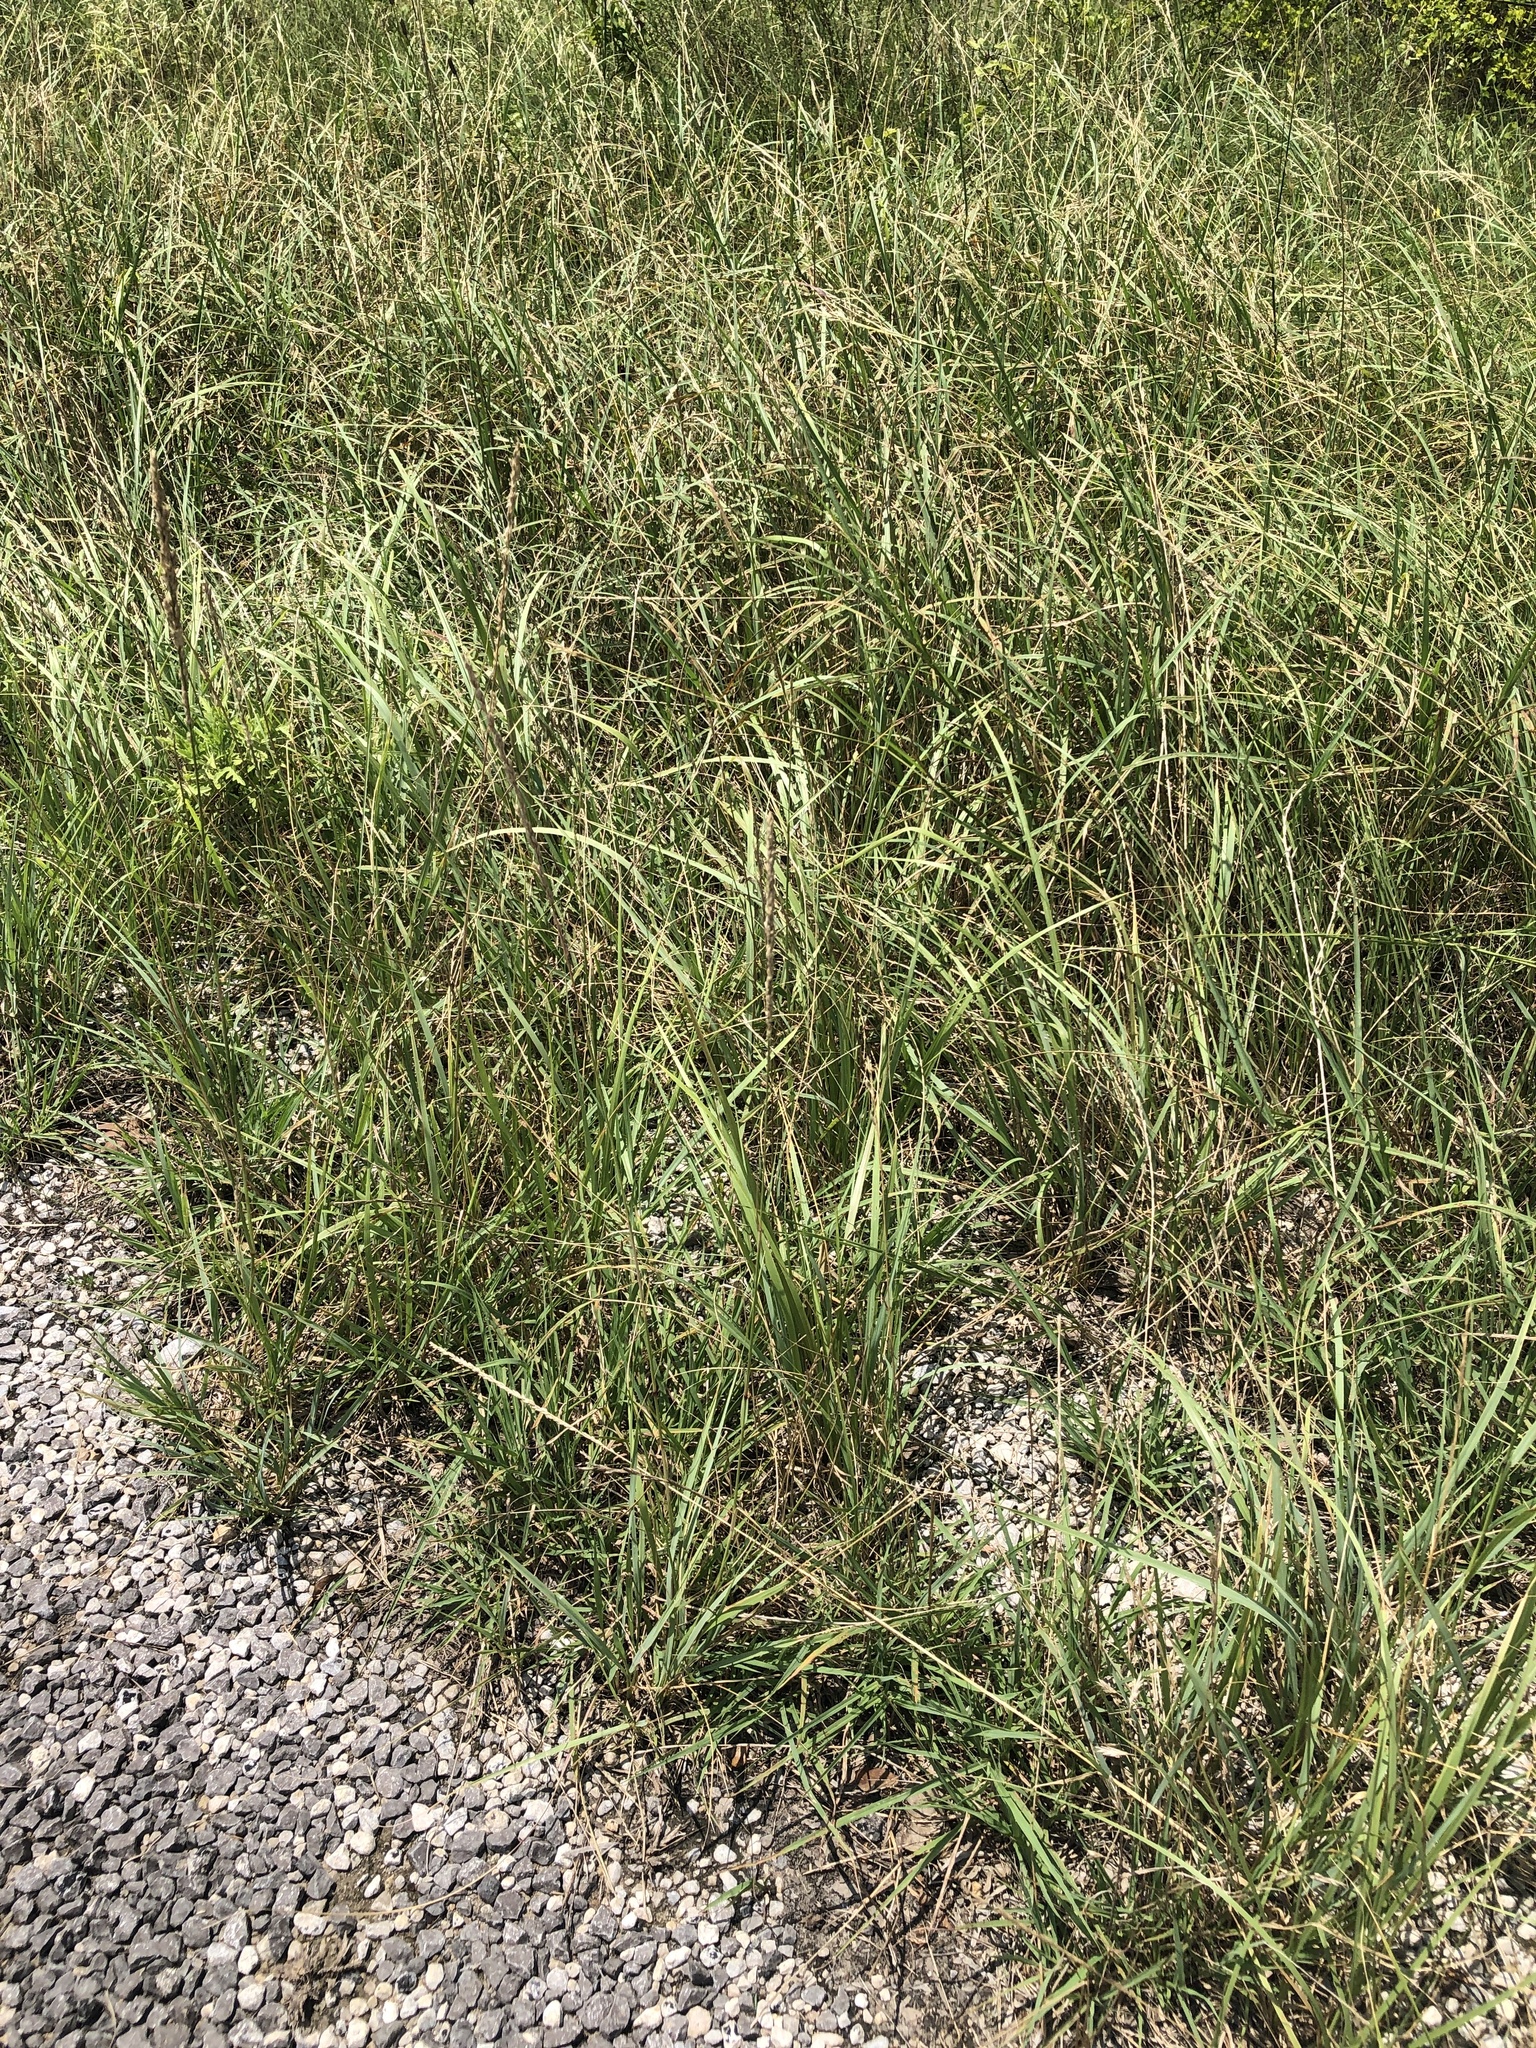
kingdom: Plantae
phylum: Tracheophyta
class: Liliopsida
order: Poales
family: Poaceae
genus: Tridens
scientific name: Tridens albescens
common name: White tridens
